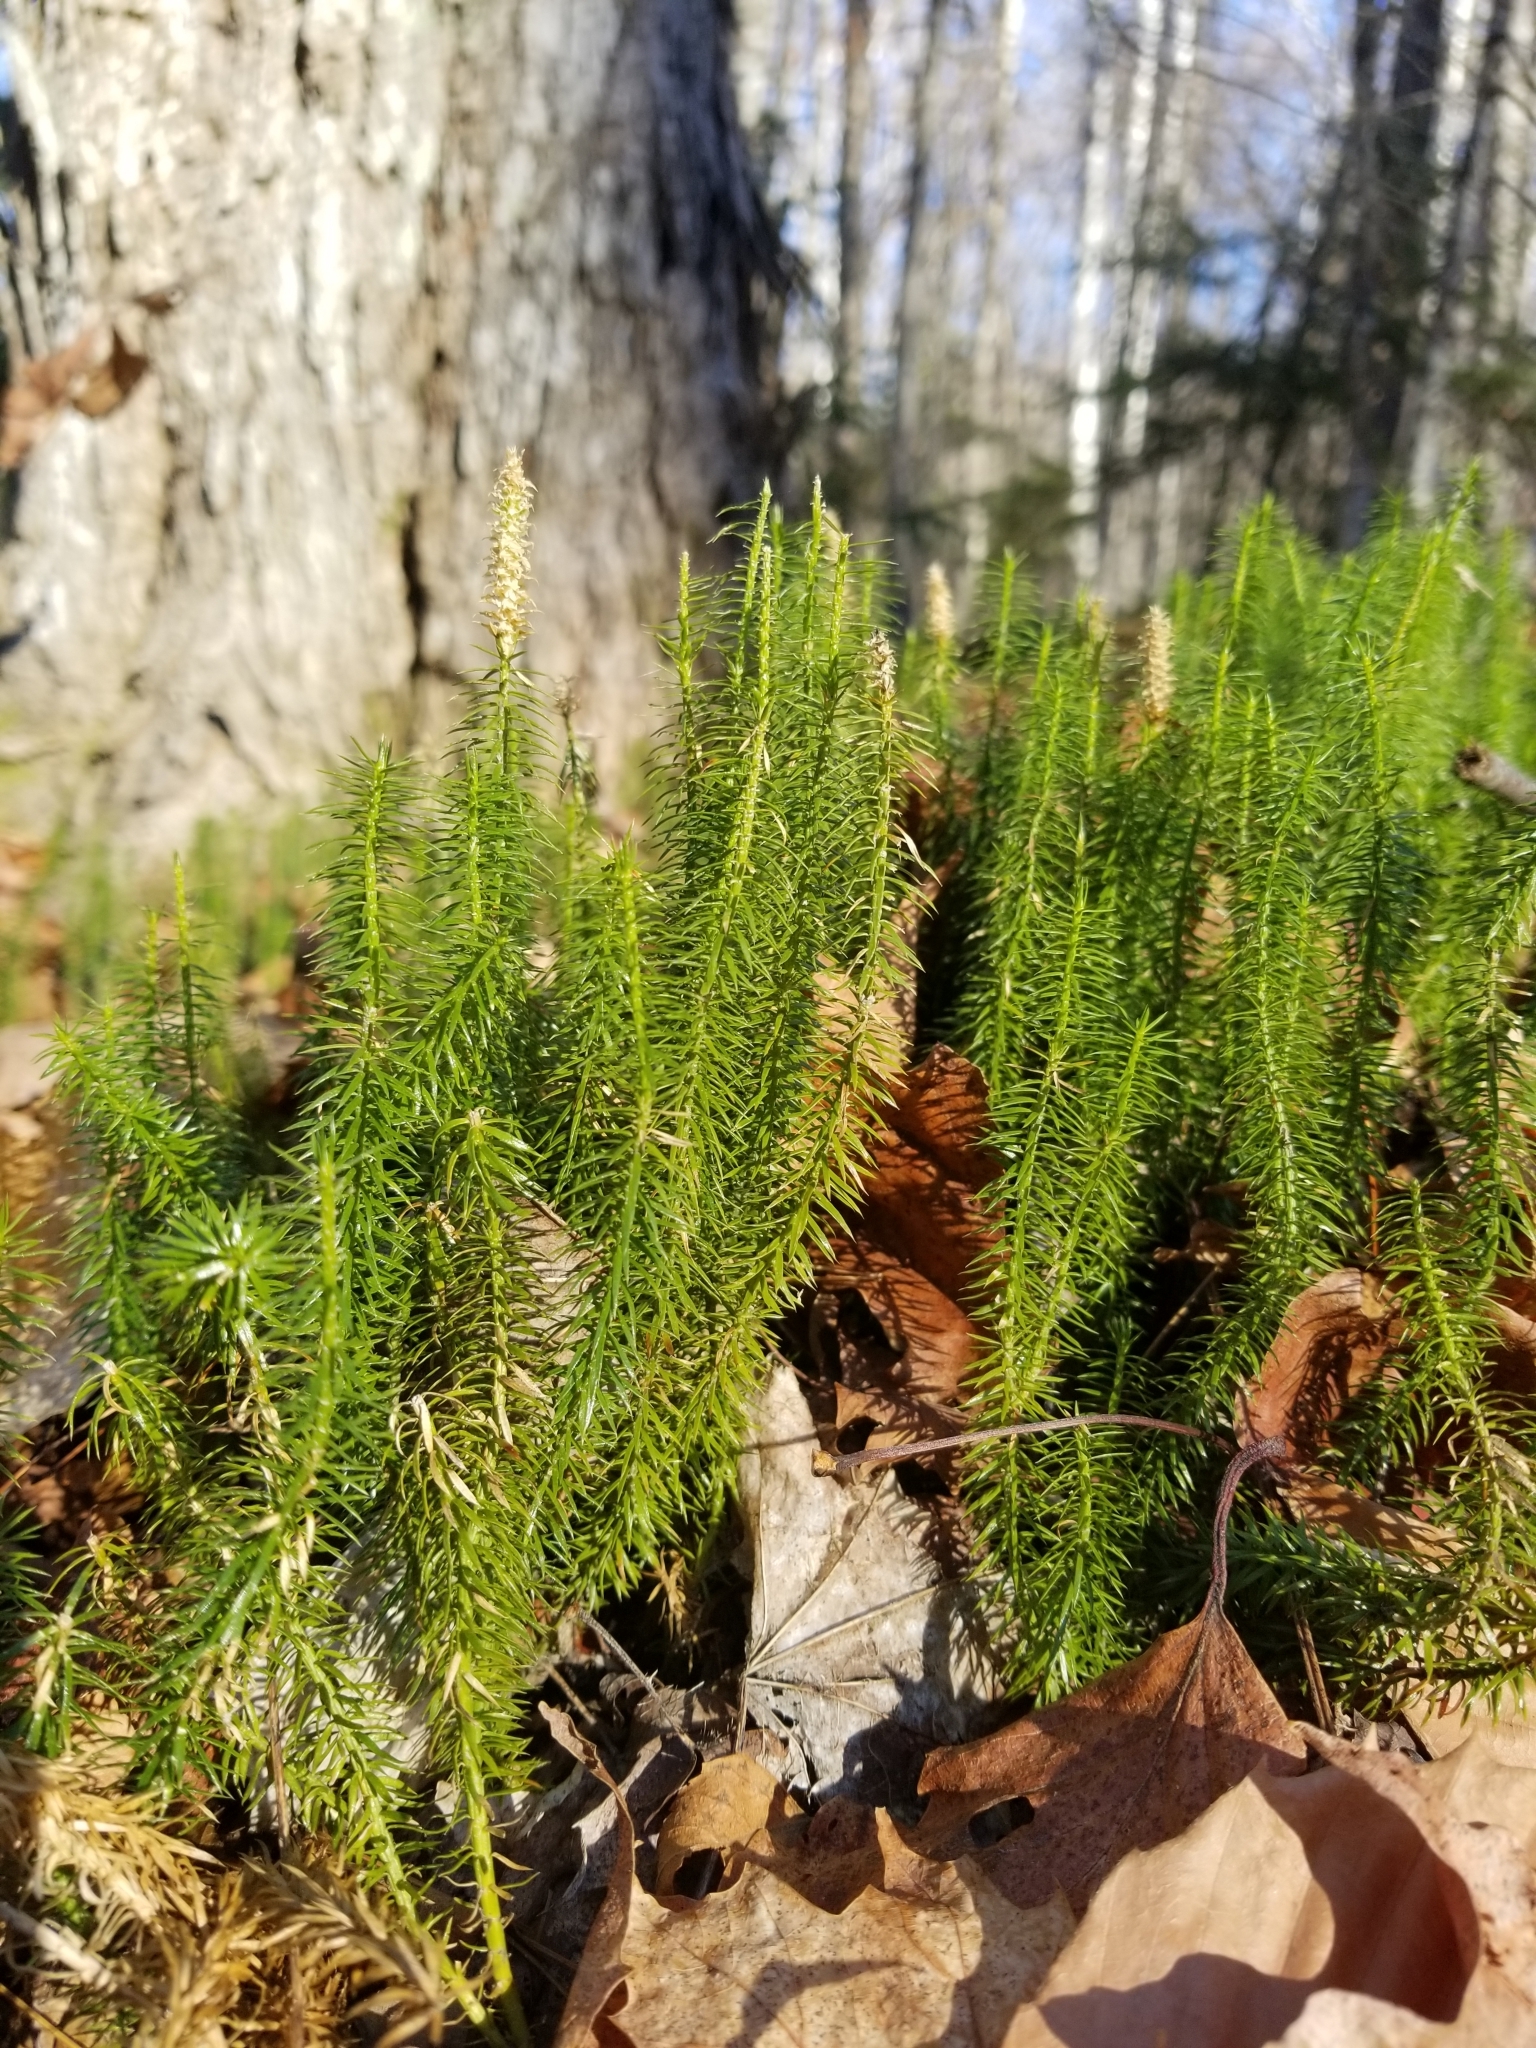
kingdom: Plantae
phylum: Tracheophyta
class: Lycopodiopsida
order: Lycopodiales
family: Lycopodiaceae
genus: Spinulum
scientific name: Spinulum annotinum
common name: Interrupted club-moss
